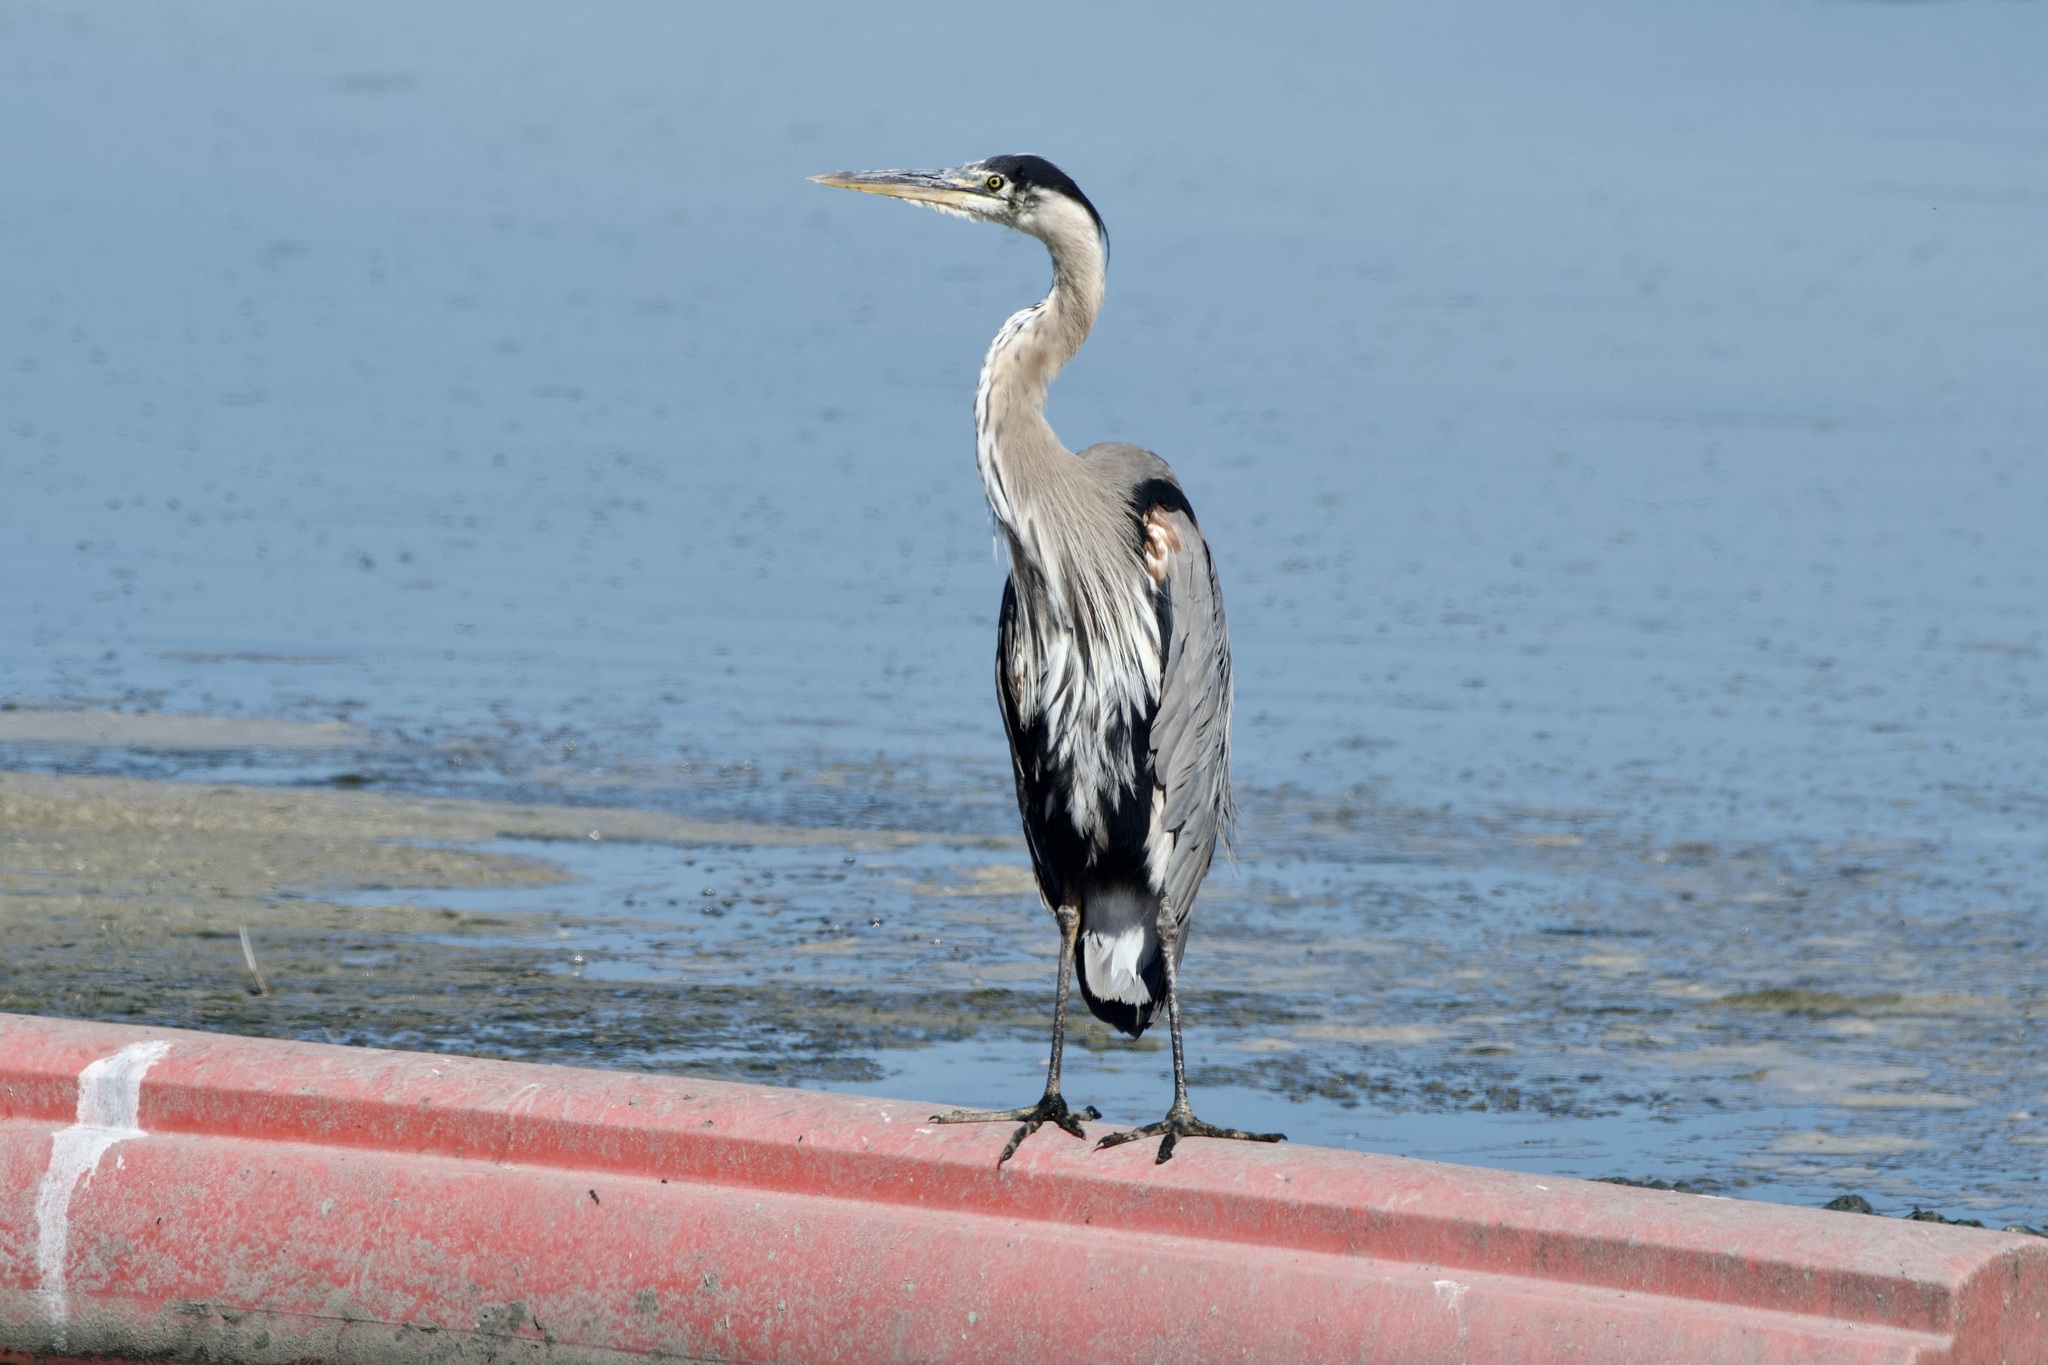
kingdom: Animalia
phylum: Chordata
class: Aves
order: Pelecaniformes
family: Ardeidae
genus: Ardea
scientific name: Ardea herodias
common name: Great blue heron
